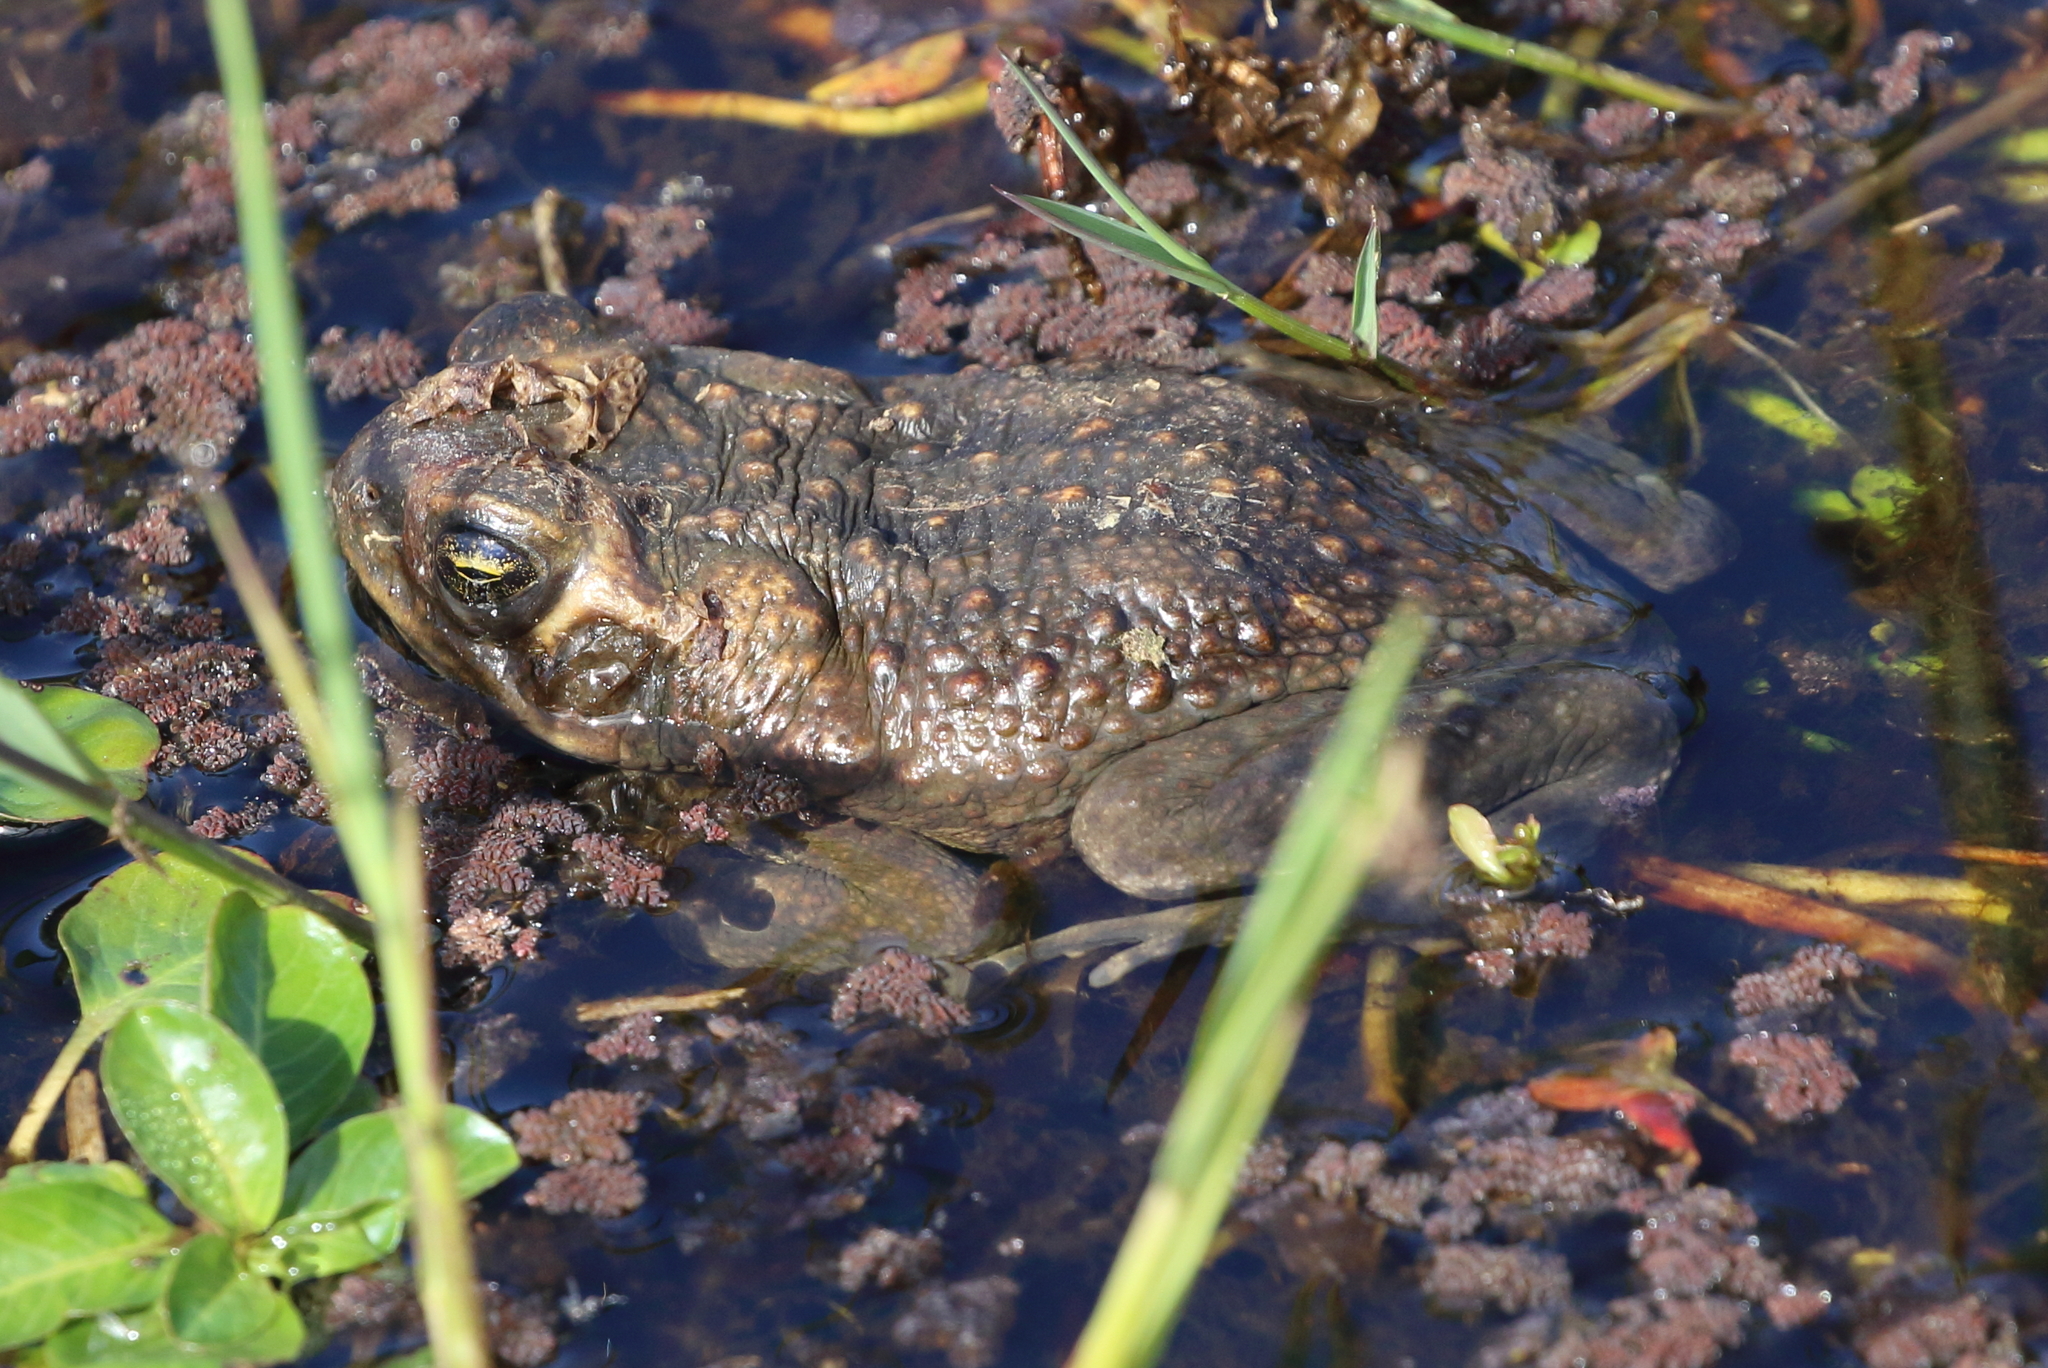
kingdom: Animalia
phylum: Chordata
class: Amphibia
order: Anura
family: Bufonidae
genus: Rhinella
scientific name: Rhinella marina
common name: Cane toad
